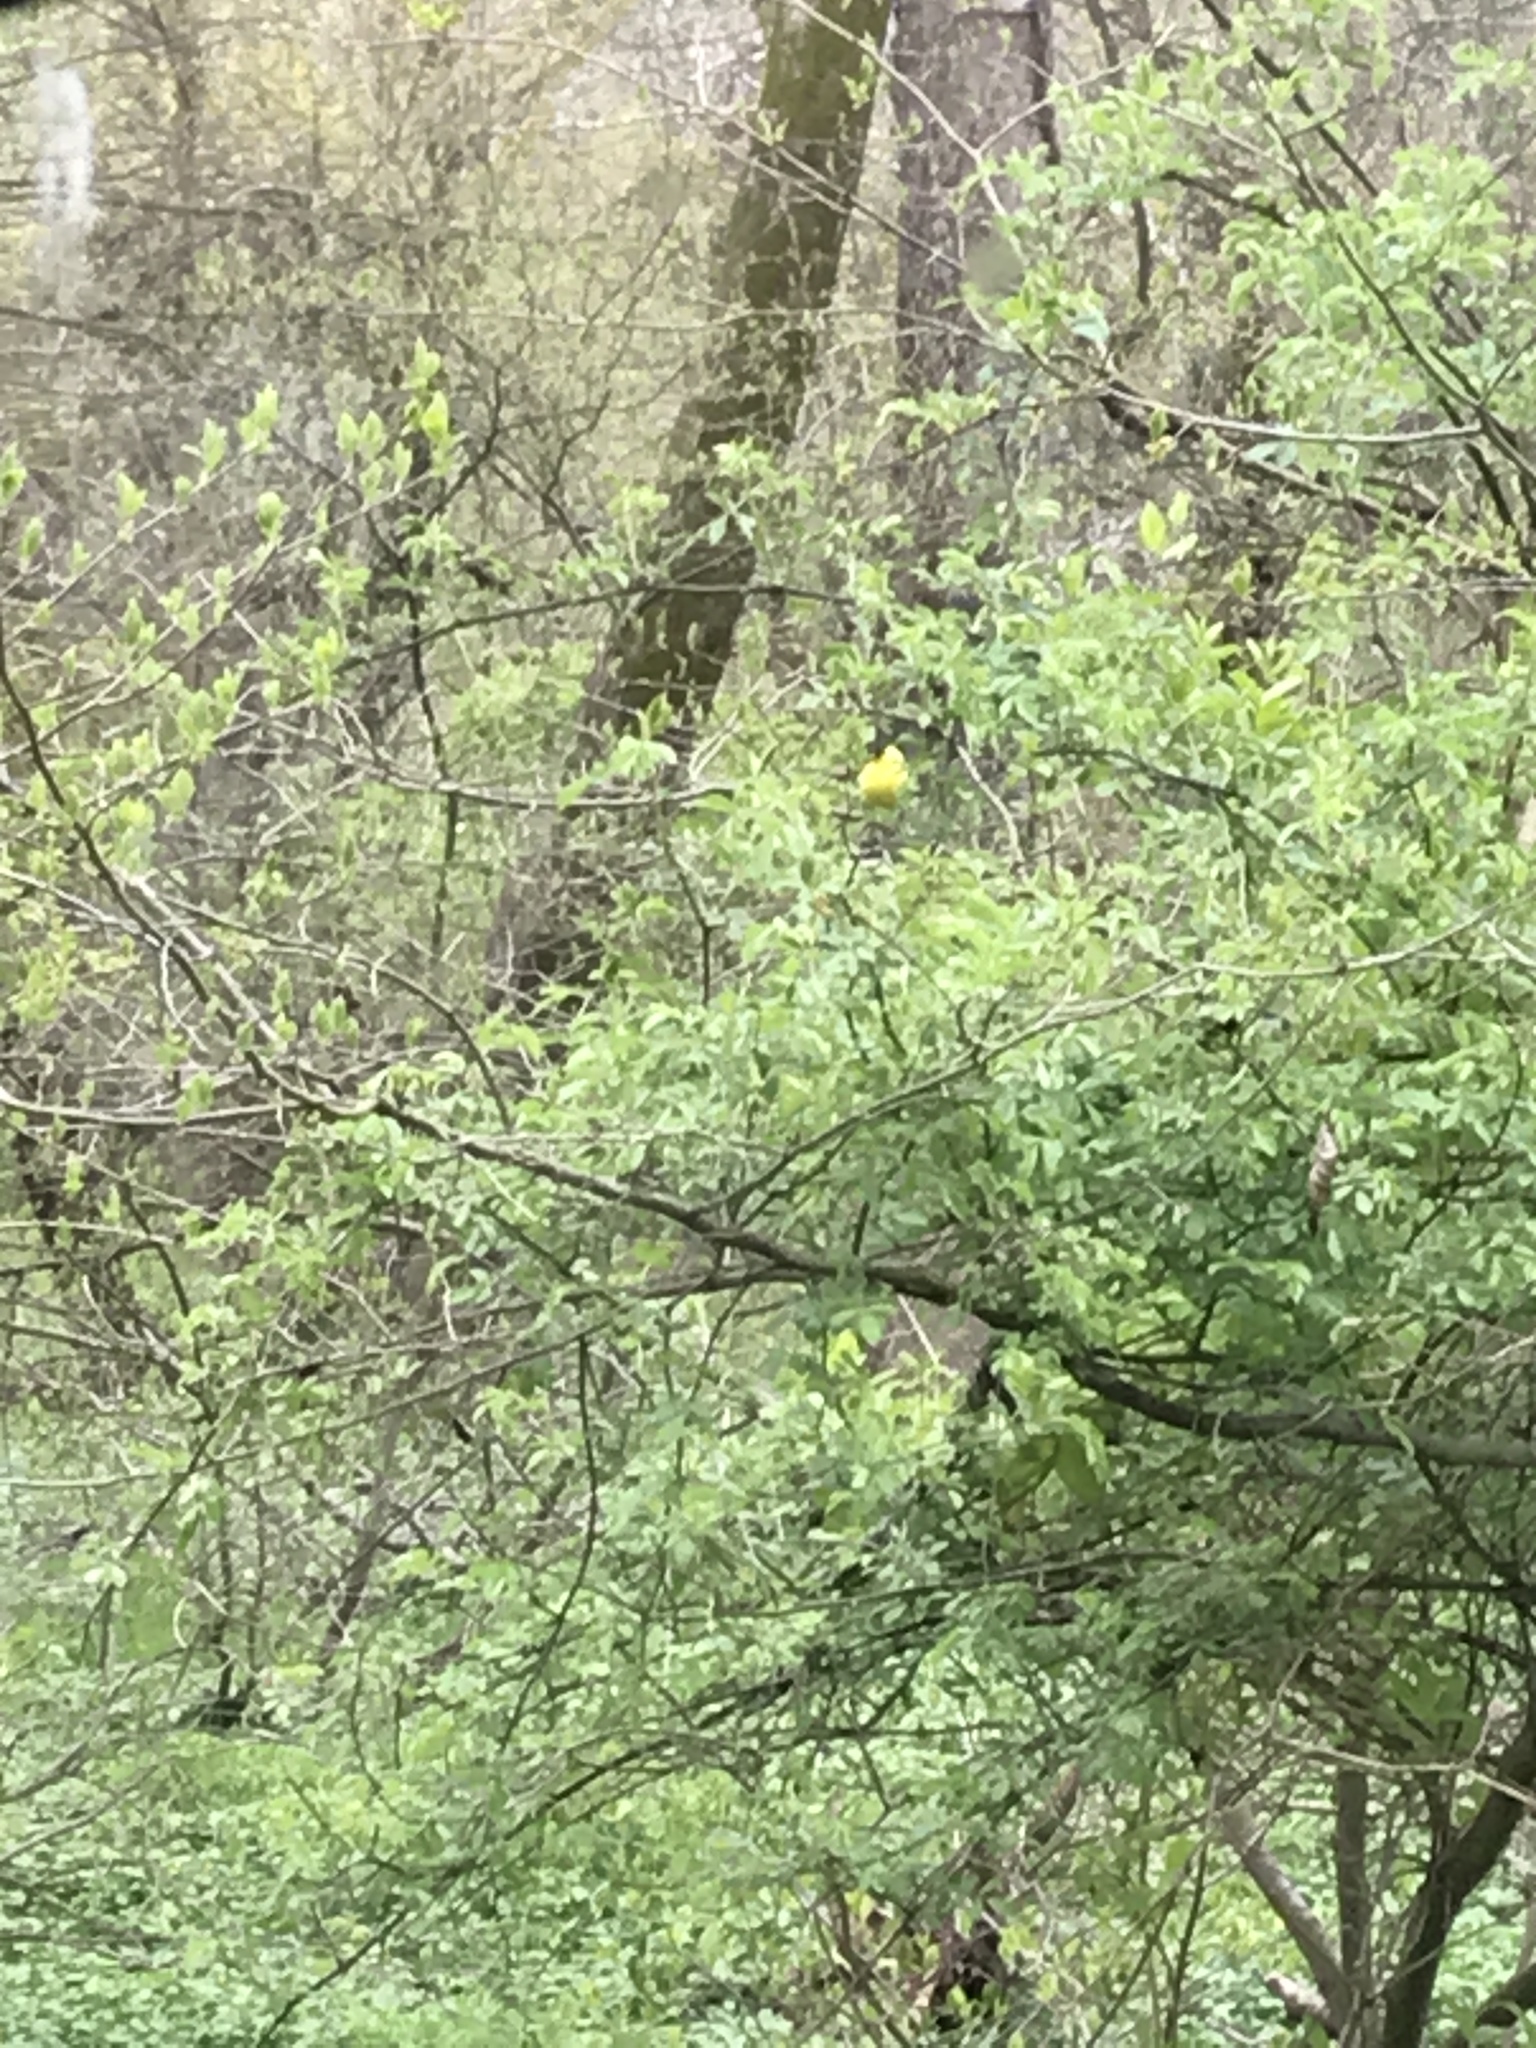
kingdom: Animalia
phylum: Chordata
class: Aves
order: Passeriformes
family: Fringillidae
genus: Spinus
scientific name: Spinus tristis
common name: American goldfinch
